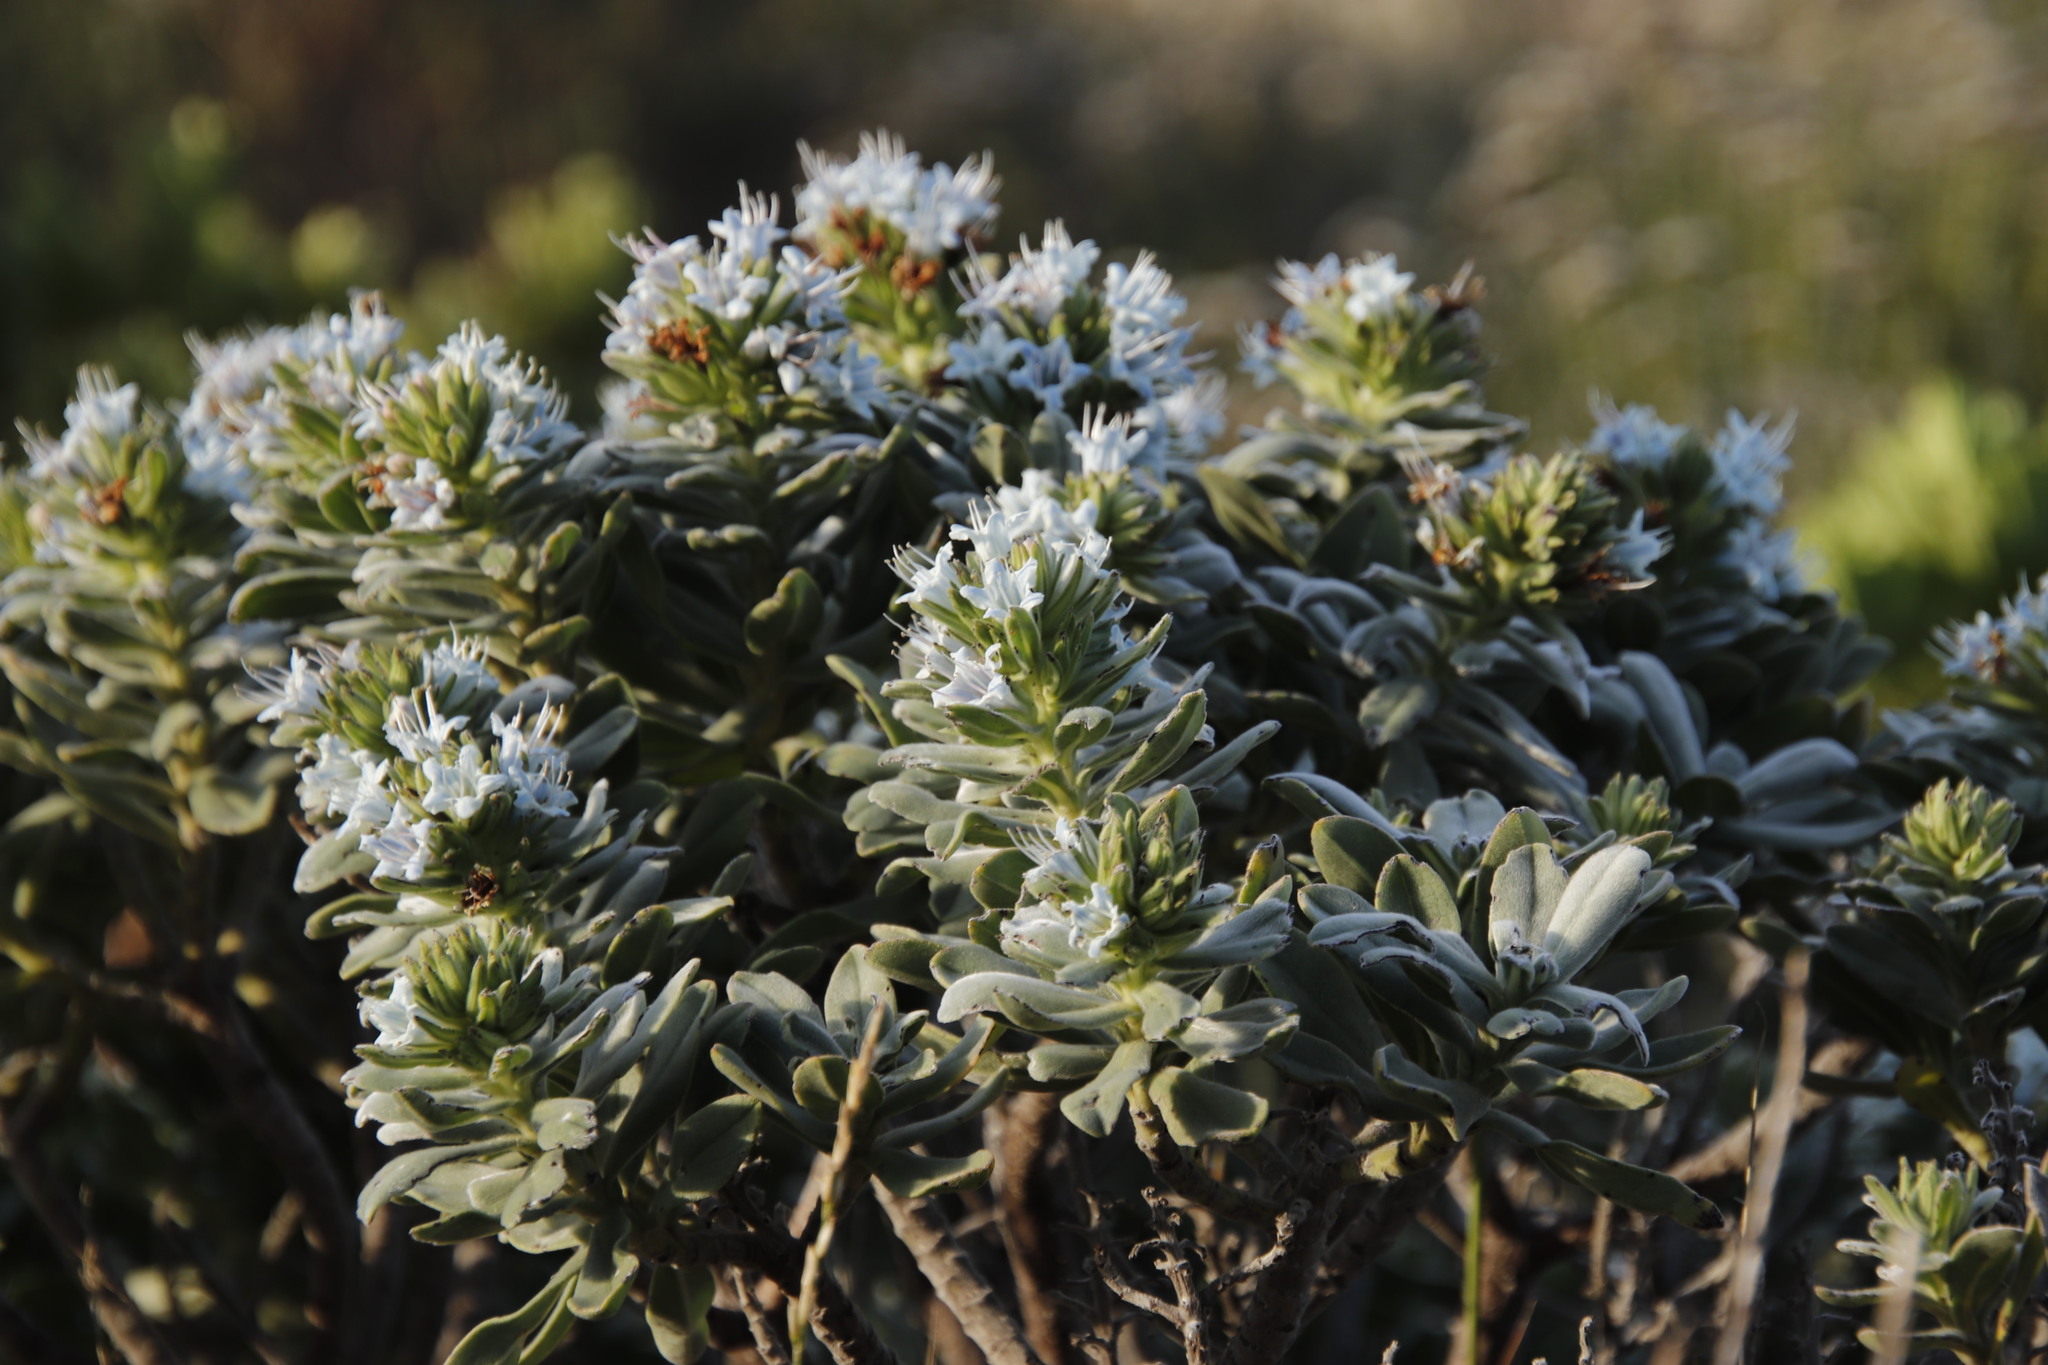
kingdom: Plantae
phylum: Tracheophyta
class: Magnoliopsida
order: Boraginales
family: Boraginaceae
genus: Lobostemon
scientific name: Lobostemon montanus
